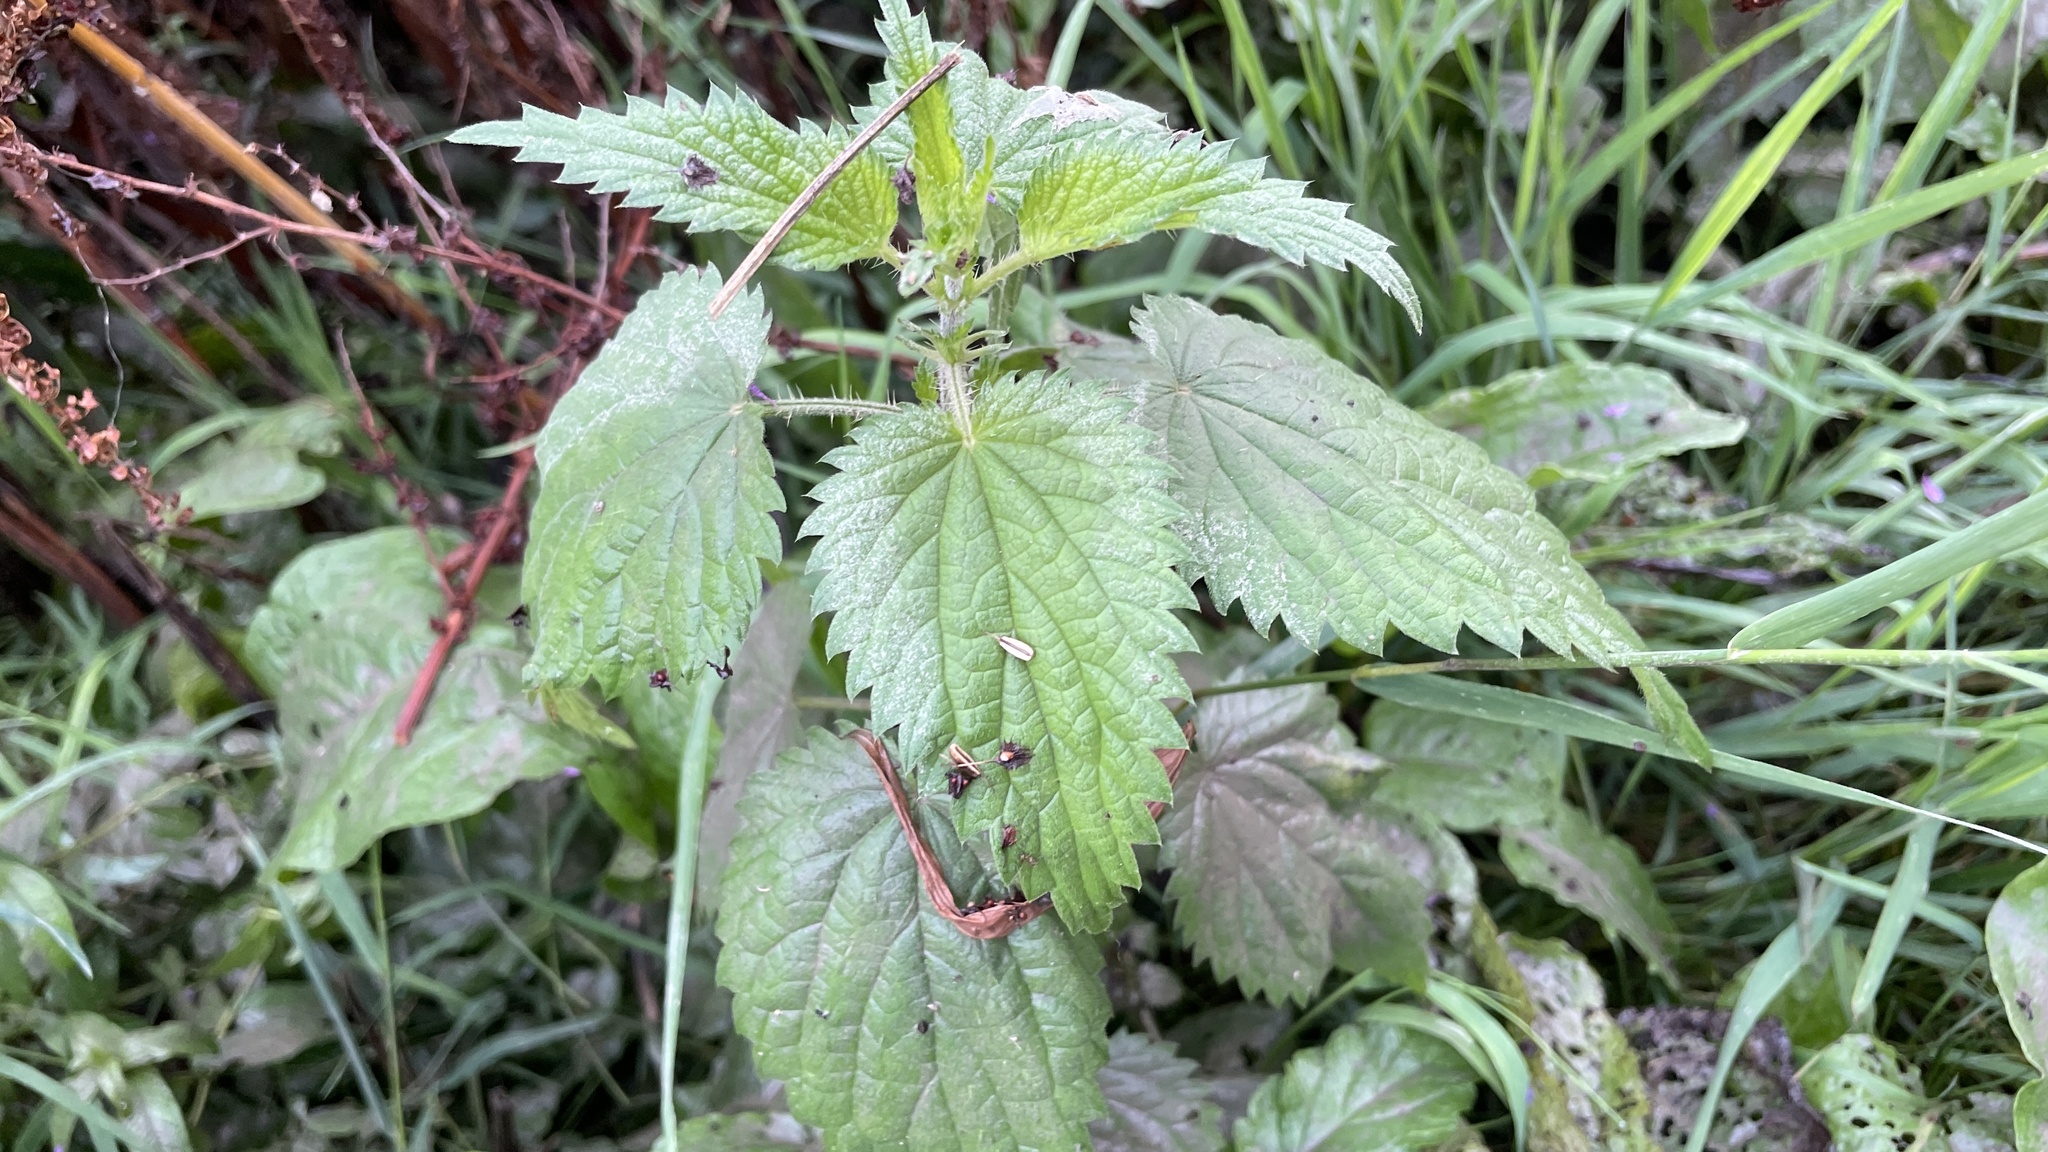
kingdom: Plantae
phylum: Tracheophyta
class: Magnoliopsida
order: Rosales
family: Urticaceae
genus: Urtica
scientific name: Urtica dioica
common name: Common nettle
